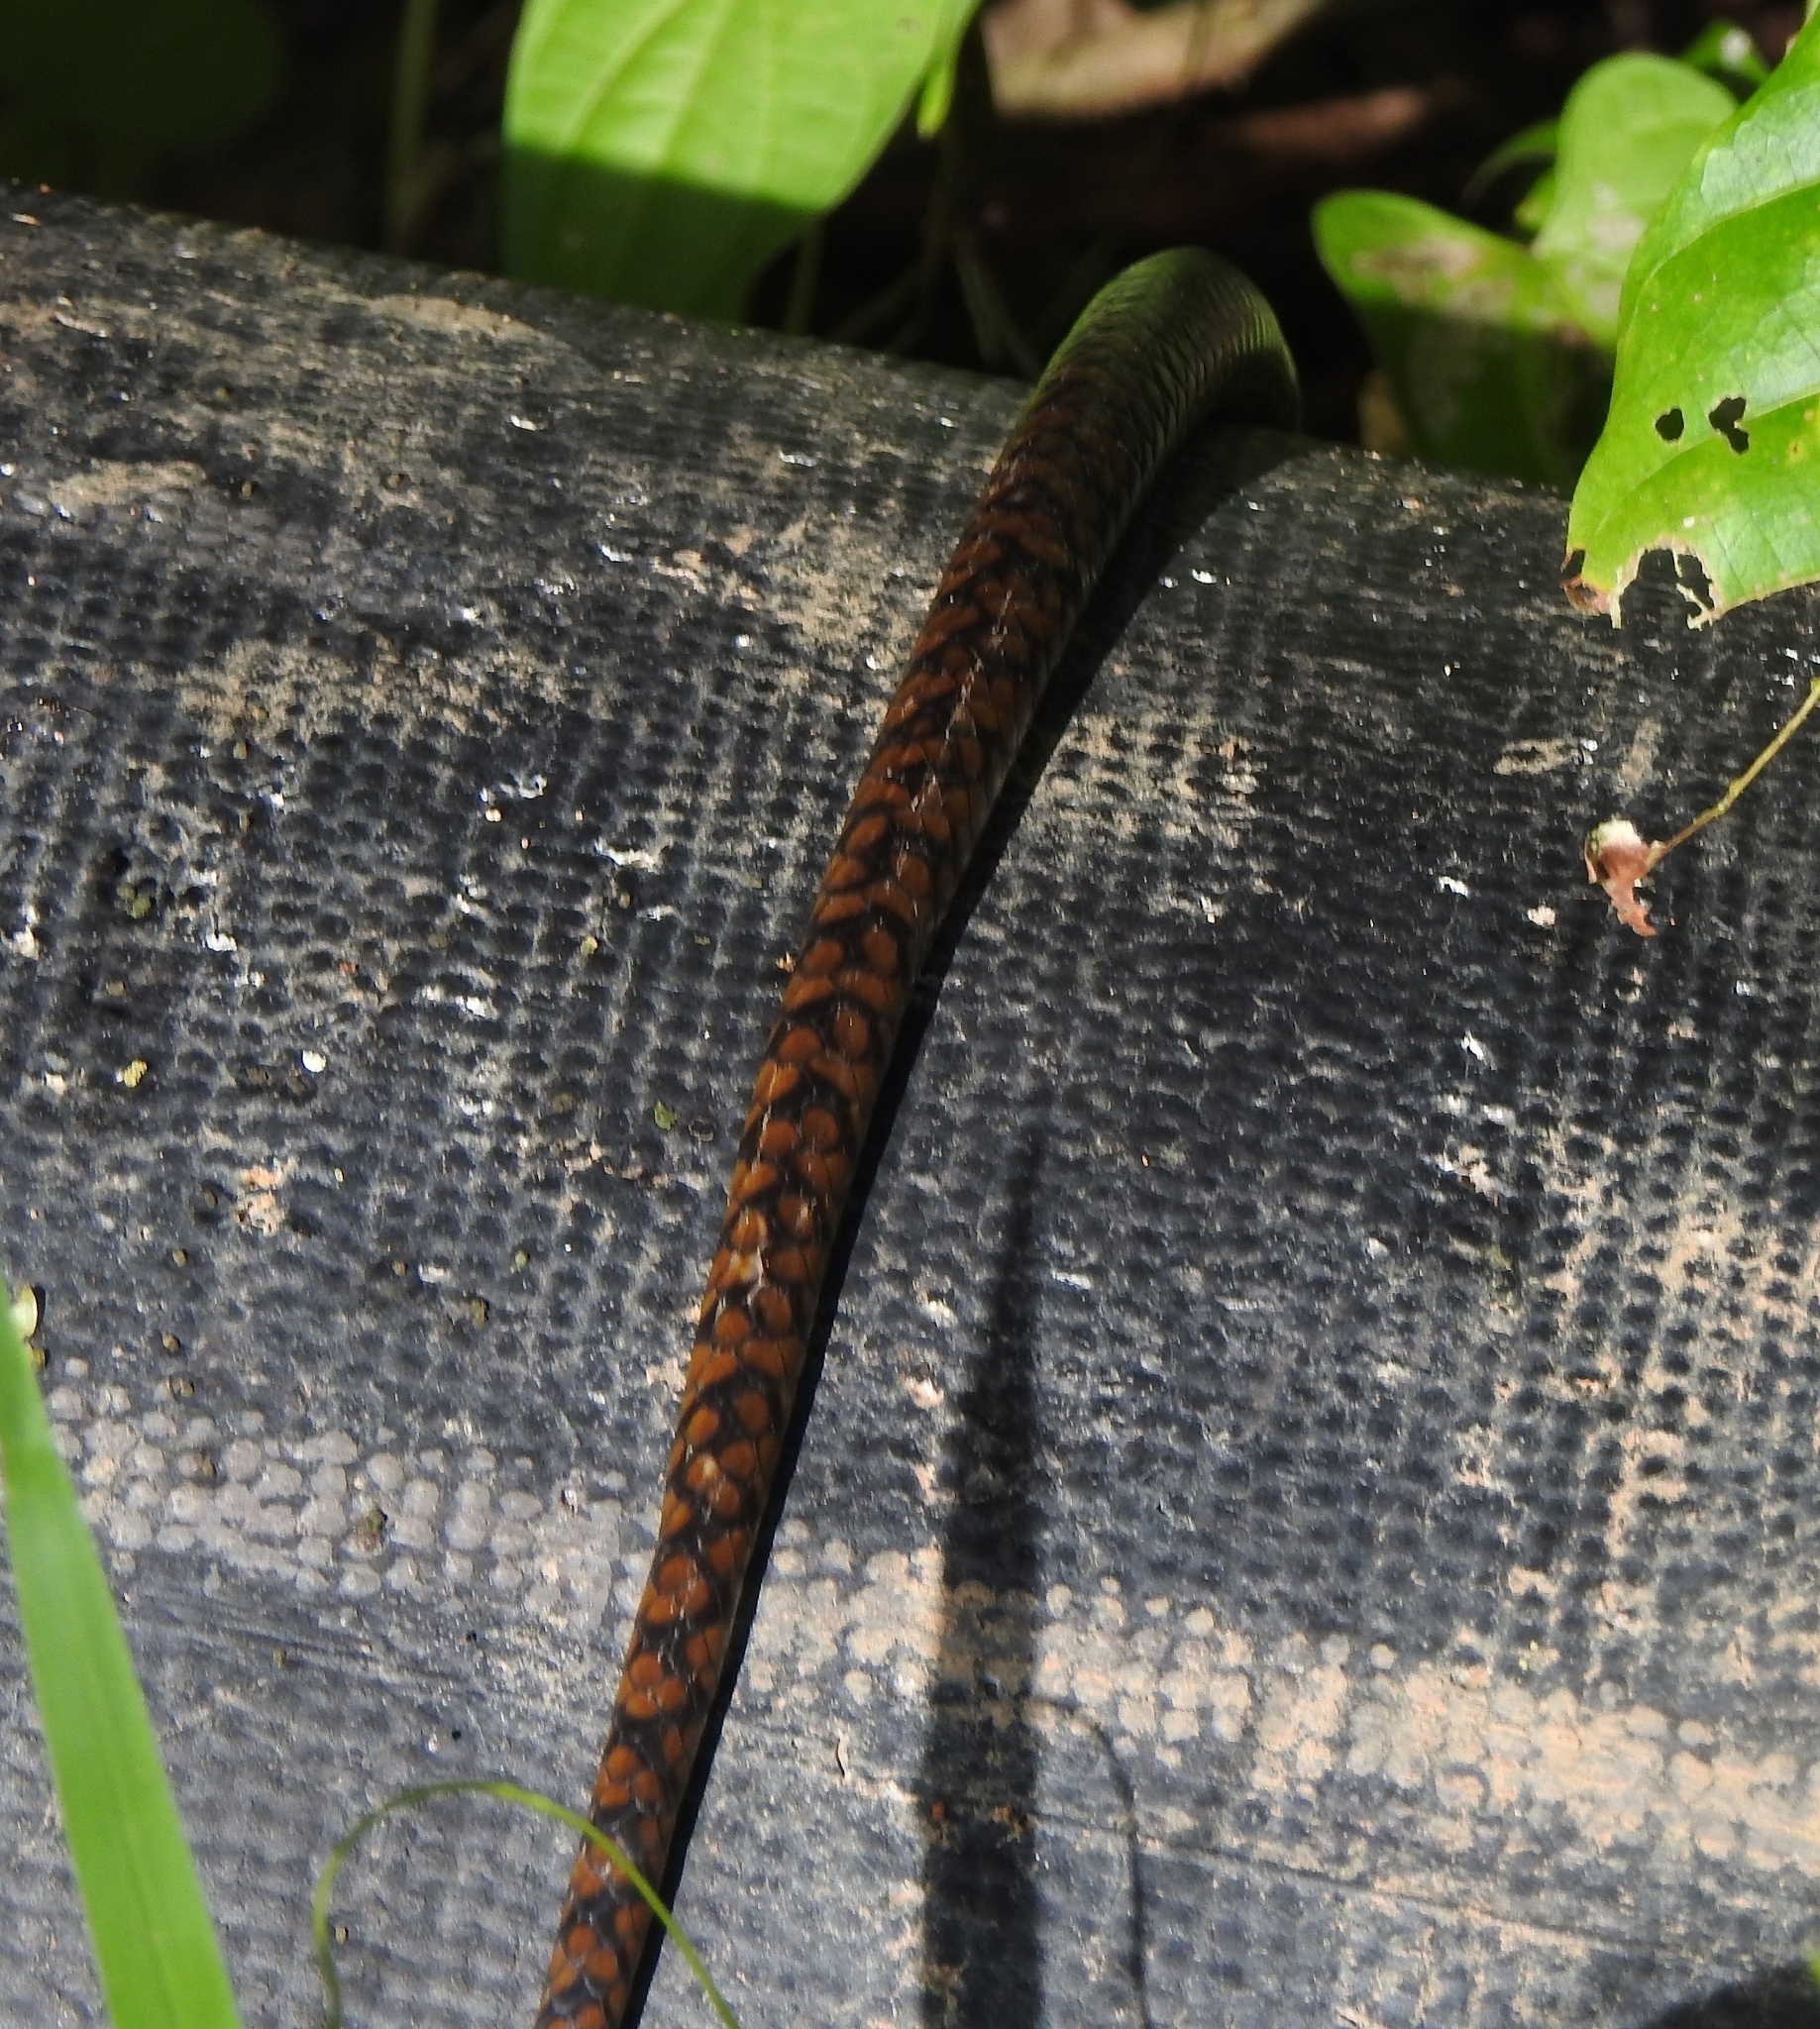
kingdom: Animalia
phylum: Chordata
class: Squamata
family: Colubridae
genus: Ptyas
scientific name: Ptyas mucosa
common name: Oriental ratsnake
